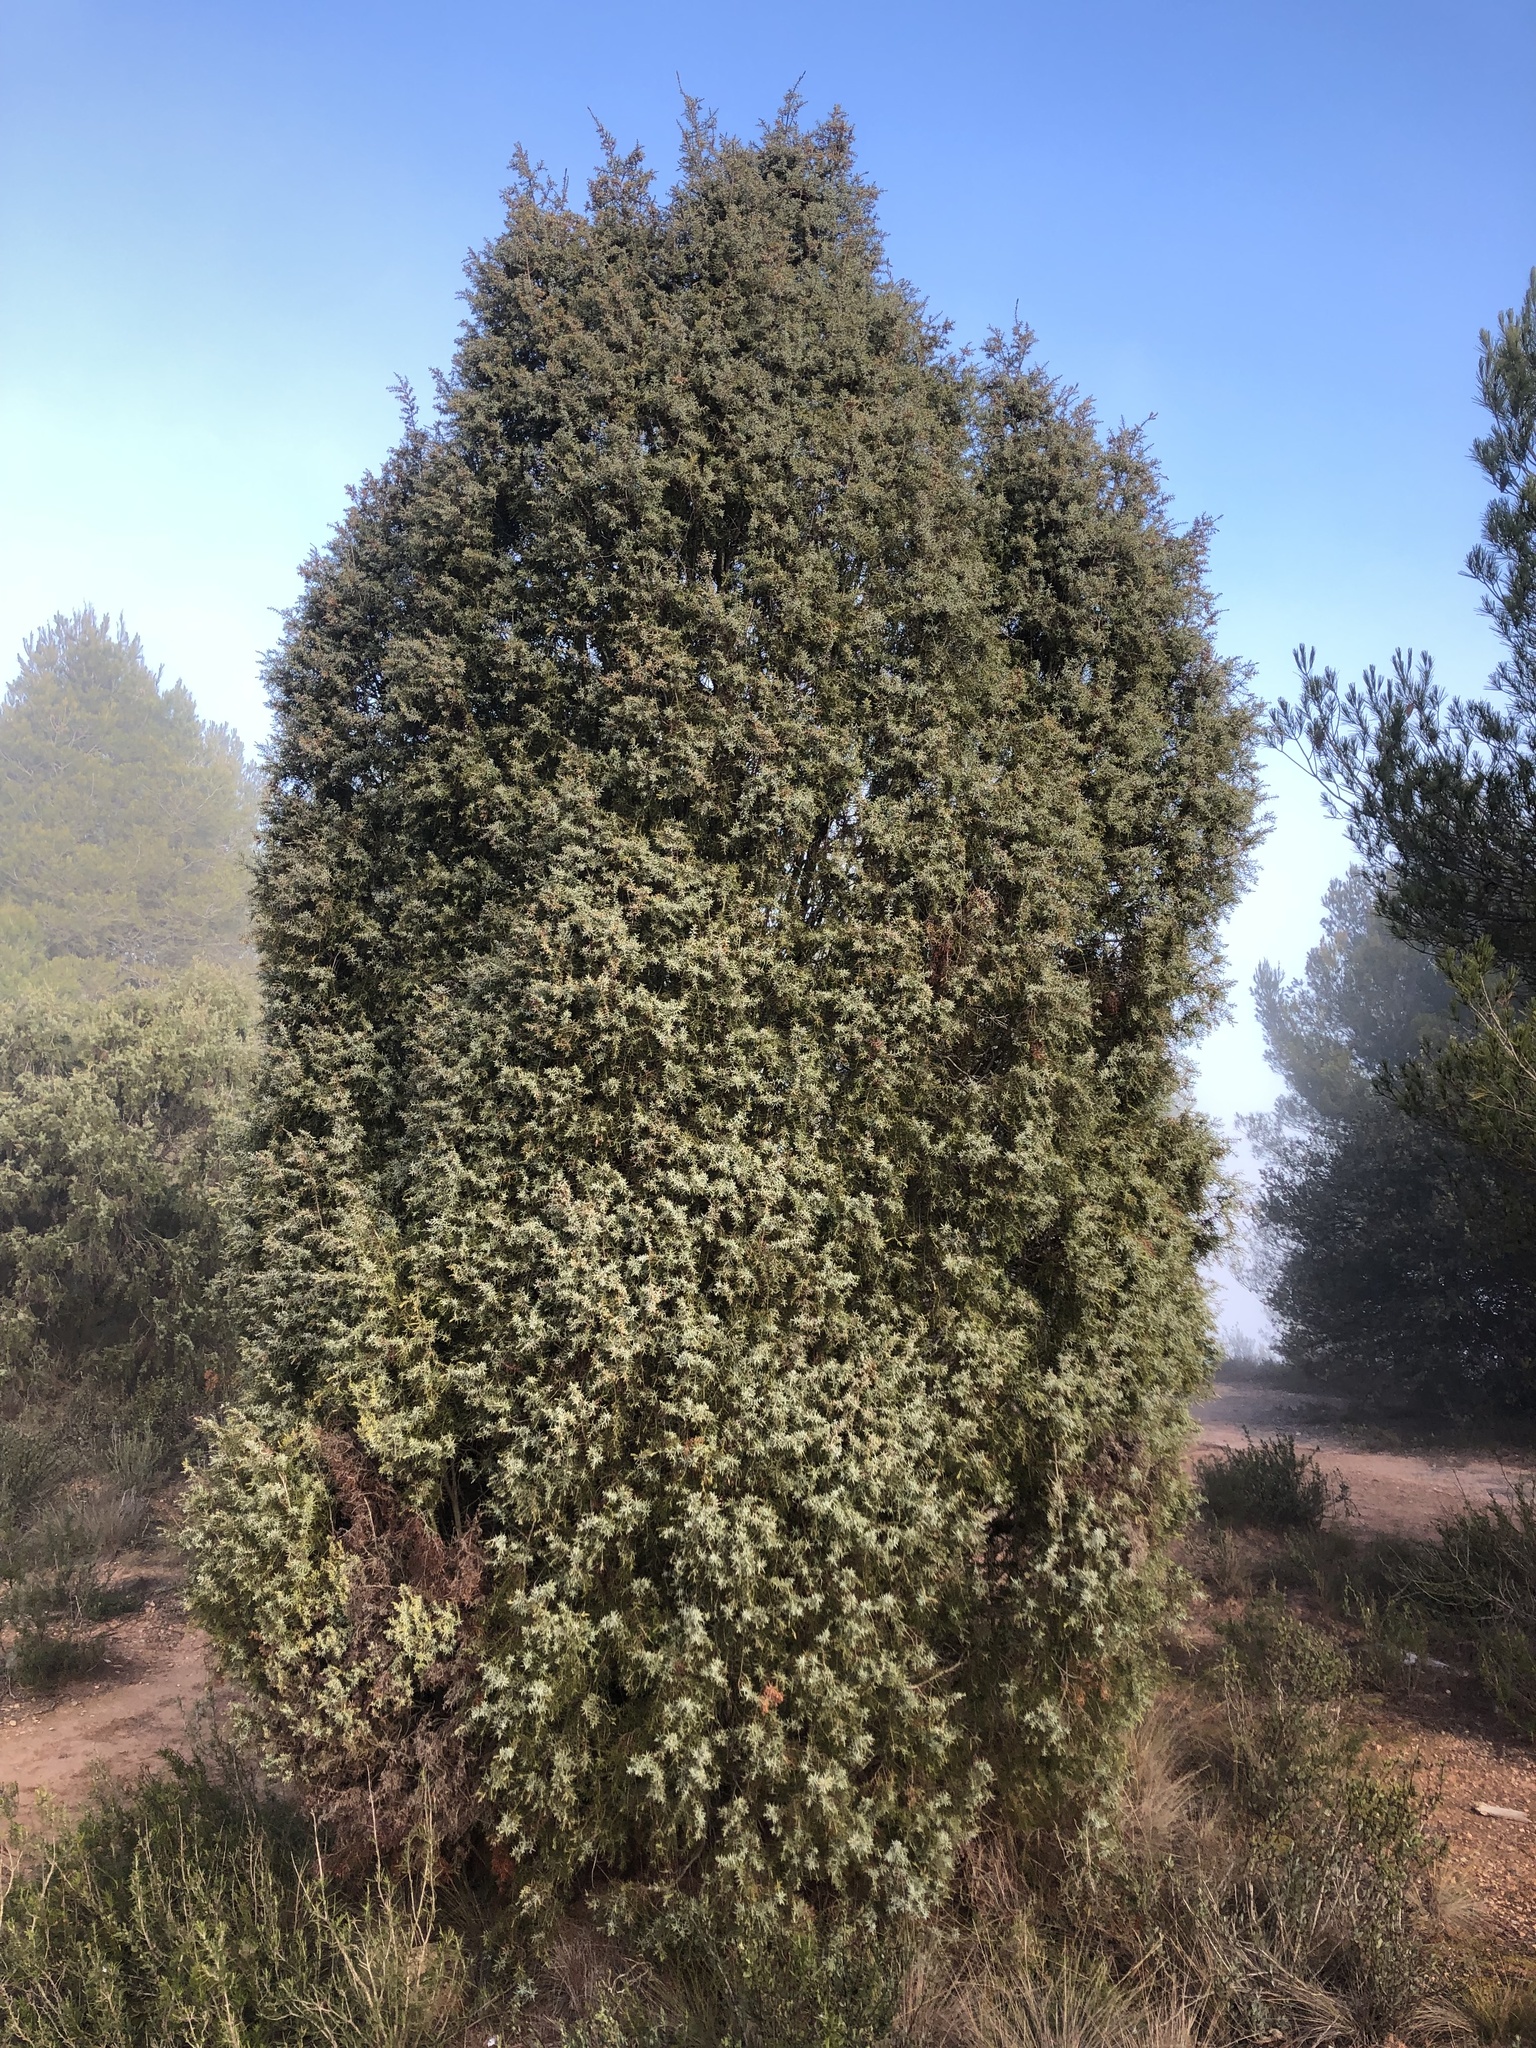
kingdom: Plantae
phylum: Tracheophyta
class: Pinopsida
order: Pinales
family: Cupressaceae
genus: Juniperus
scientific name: Juniperus oxycedrus
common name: Prickly juniper
